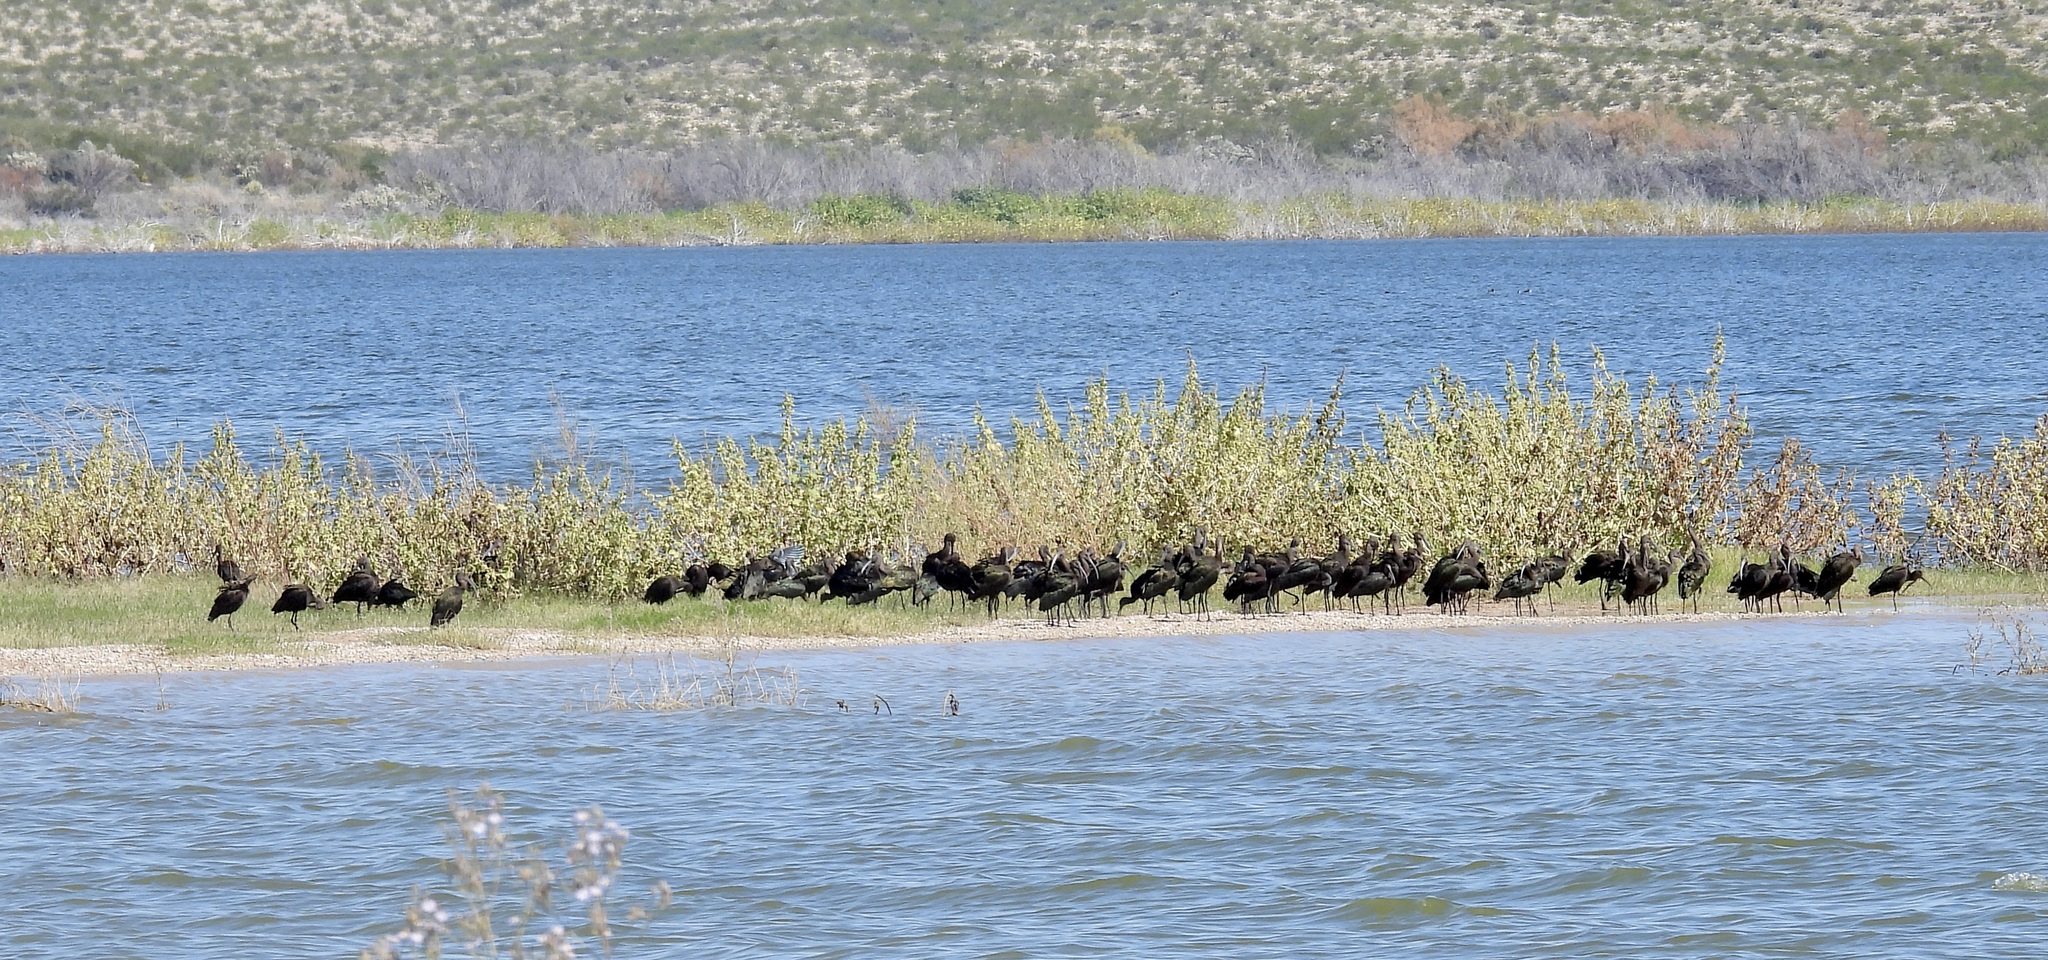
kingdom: Animalia
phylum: Chordata
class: Aves
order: Pelecaniformes
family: Threskiornithidae
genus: Plegadis
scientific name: Plegadis chihi
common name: White-faced ibis
